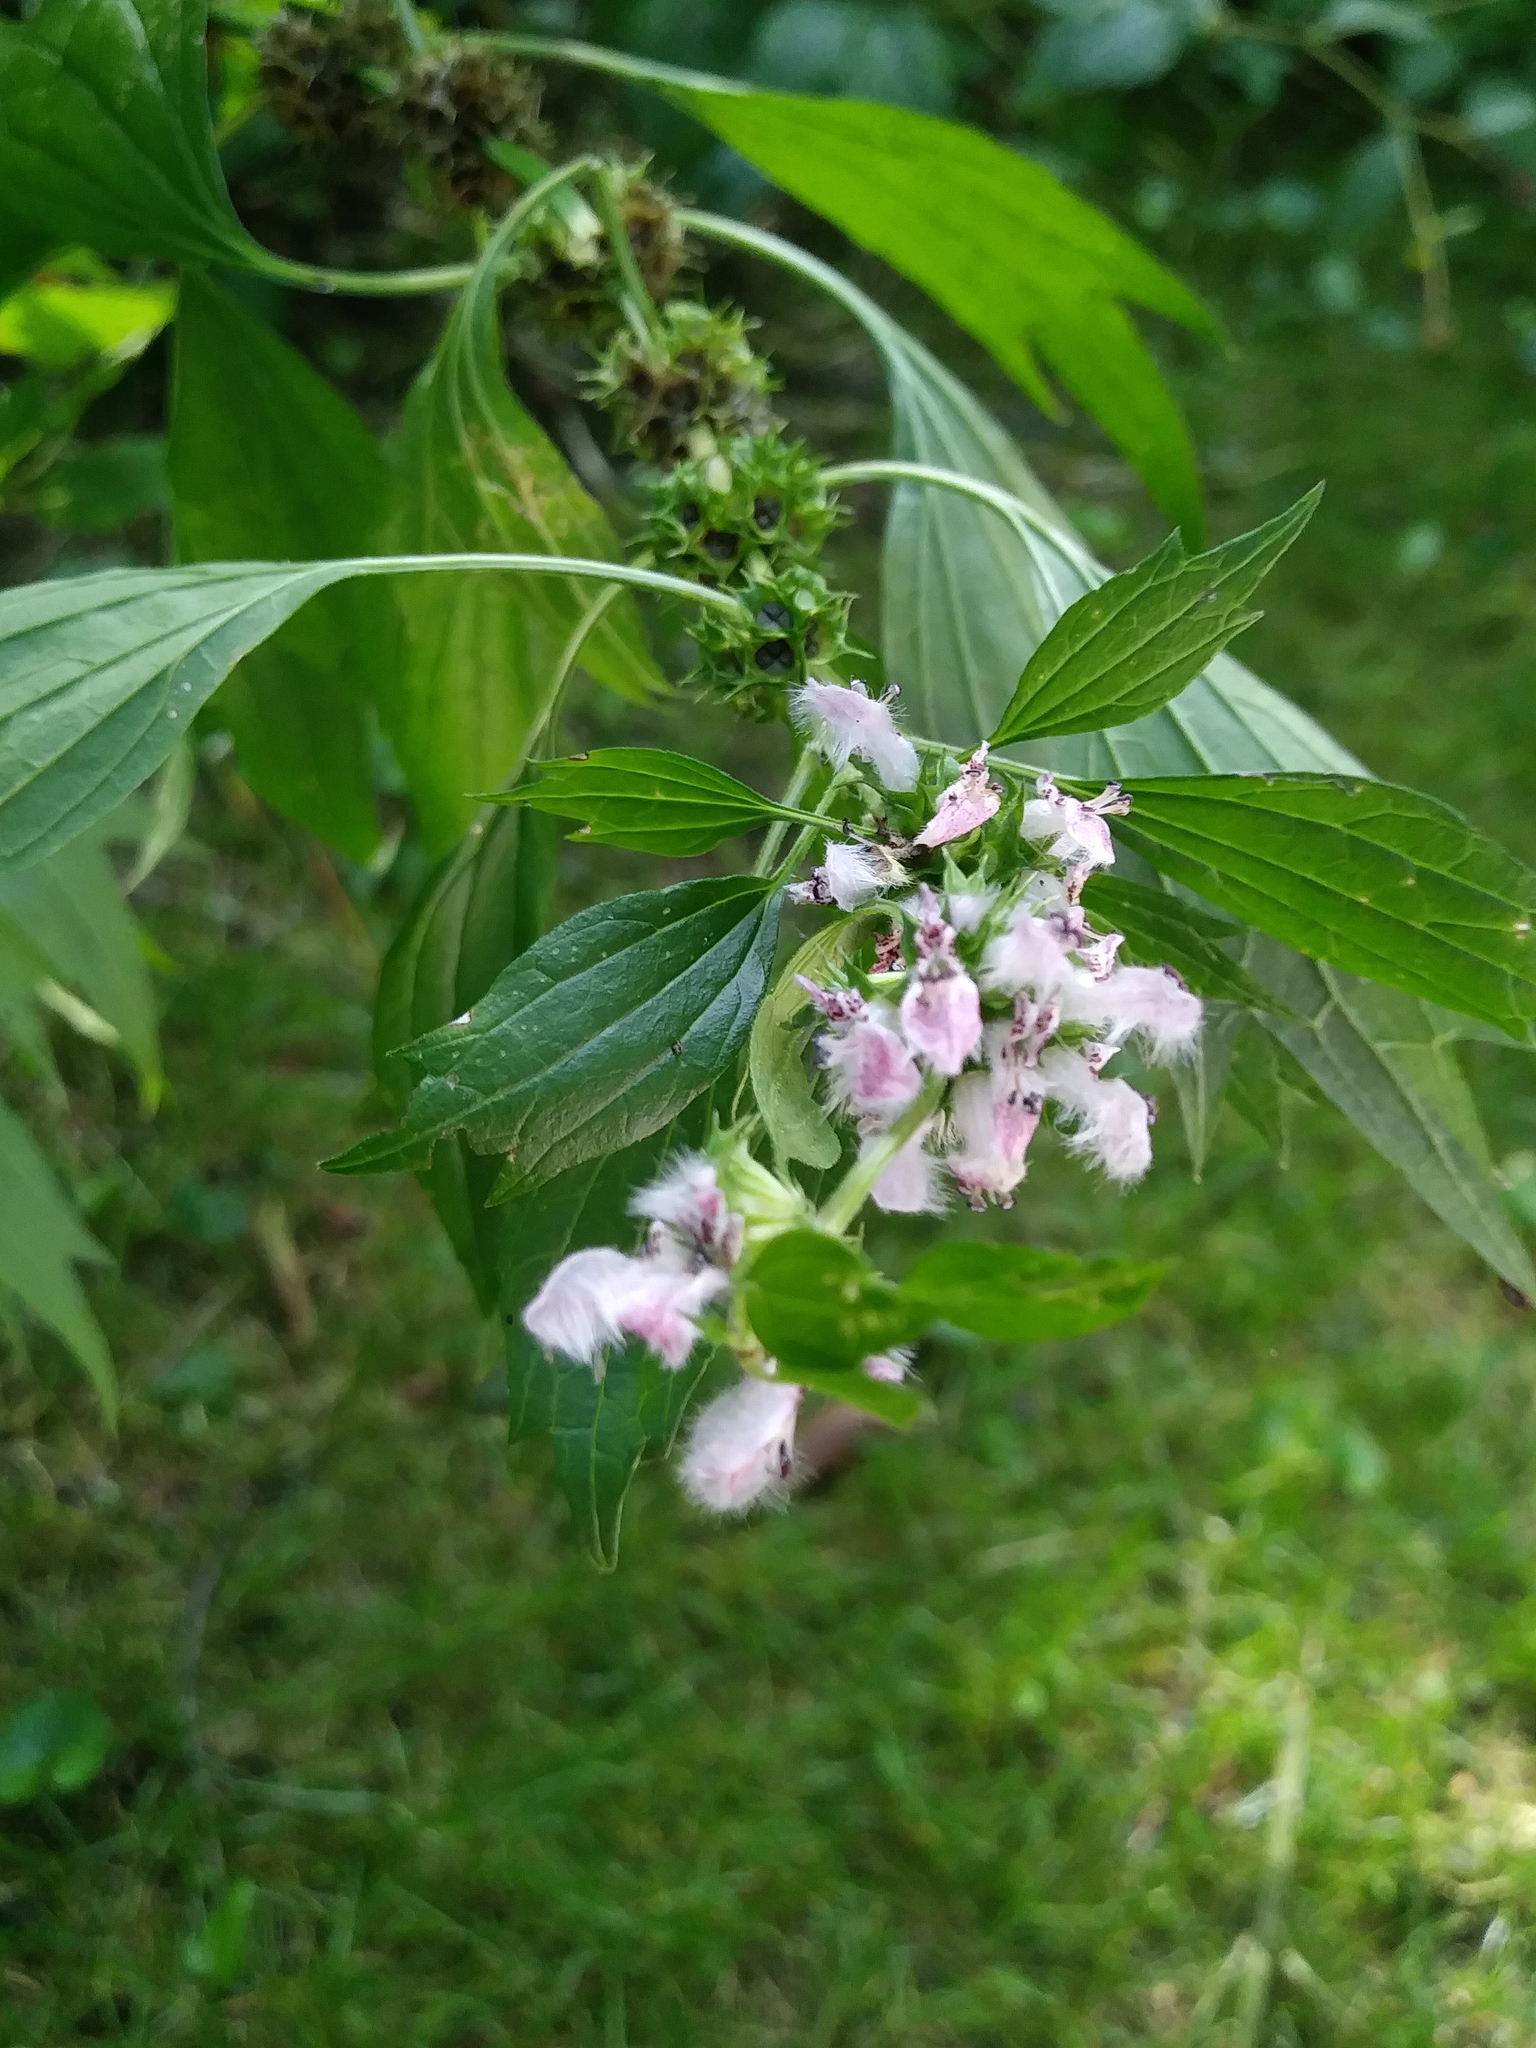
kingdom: Plantae
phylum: Tracheophyta
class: Magnoliopsida
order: Lamiales
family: Lamiaceae
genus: Leonurus
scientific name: Leonurus cardiaca
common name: Motherwort
